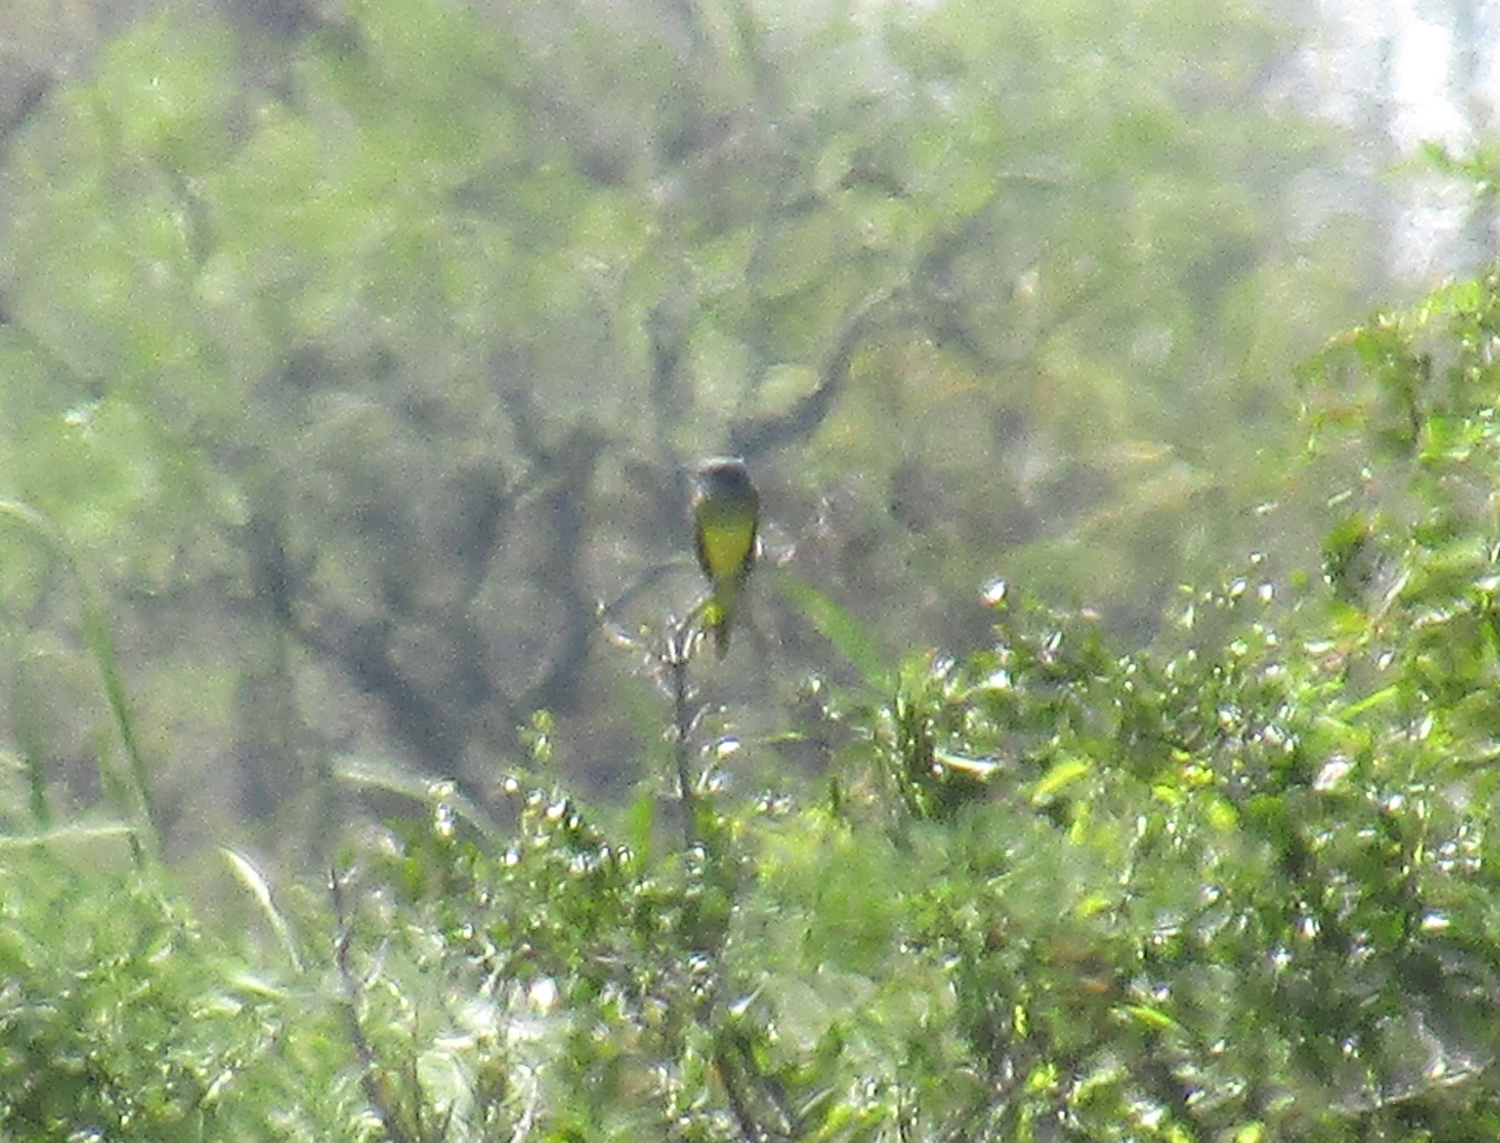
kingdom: Animalia
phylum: Chordata
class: Aves
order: Passeriformes
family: Tyrannidae
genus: Tyrannus
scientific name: Tyrannus melancholicus
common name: Tropical kingbird
